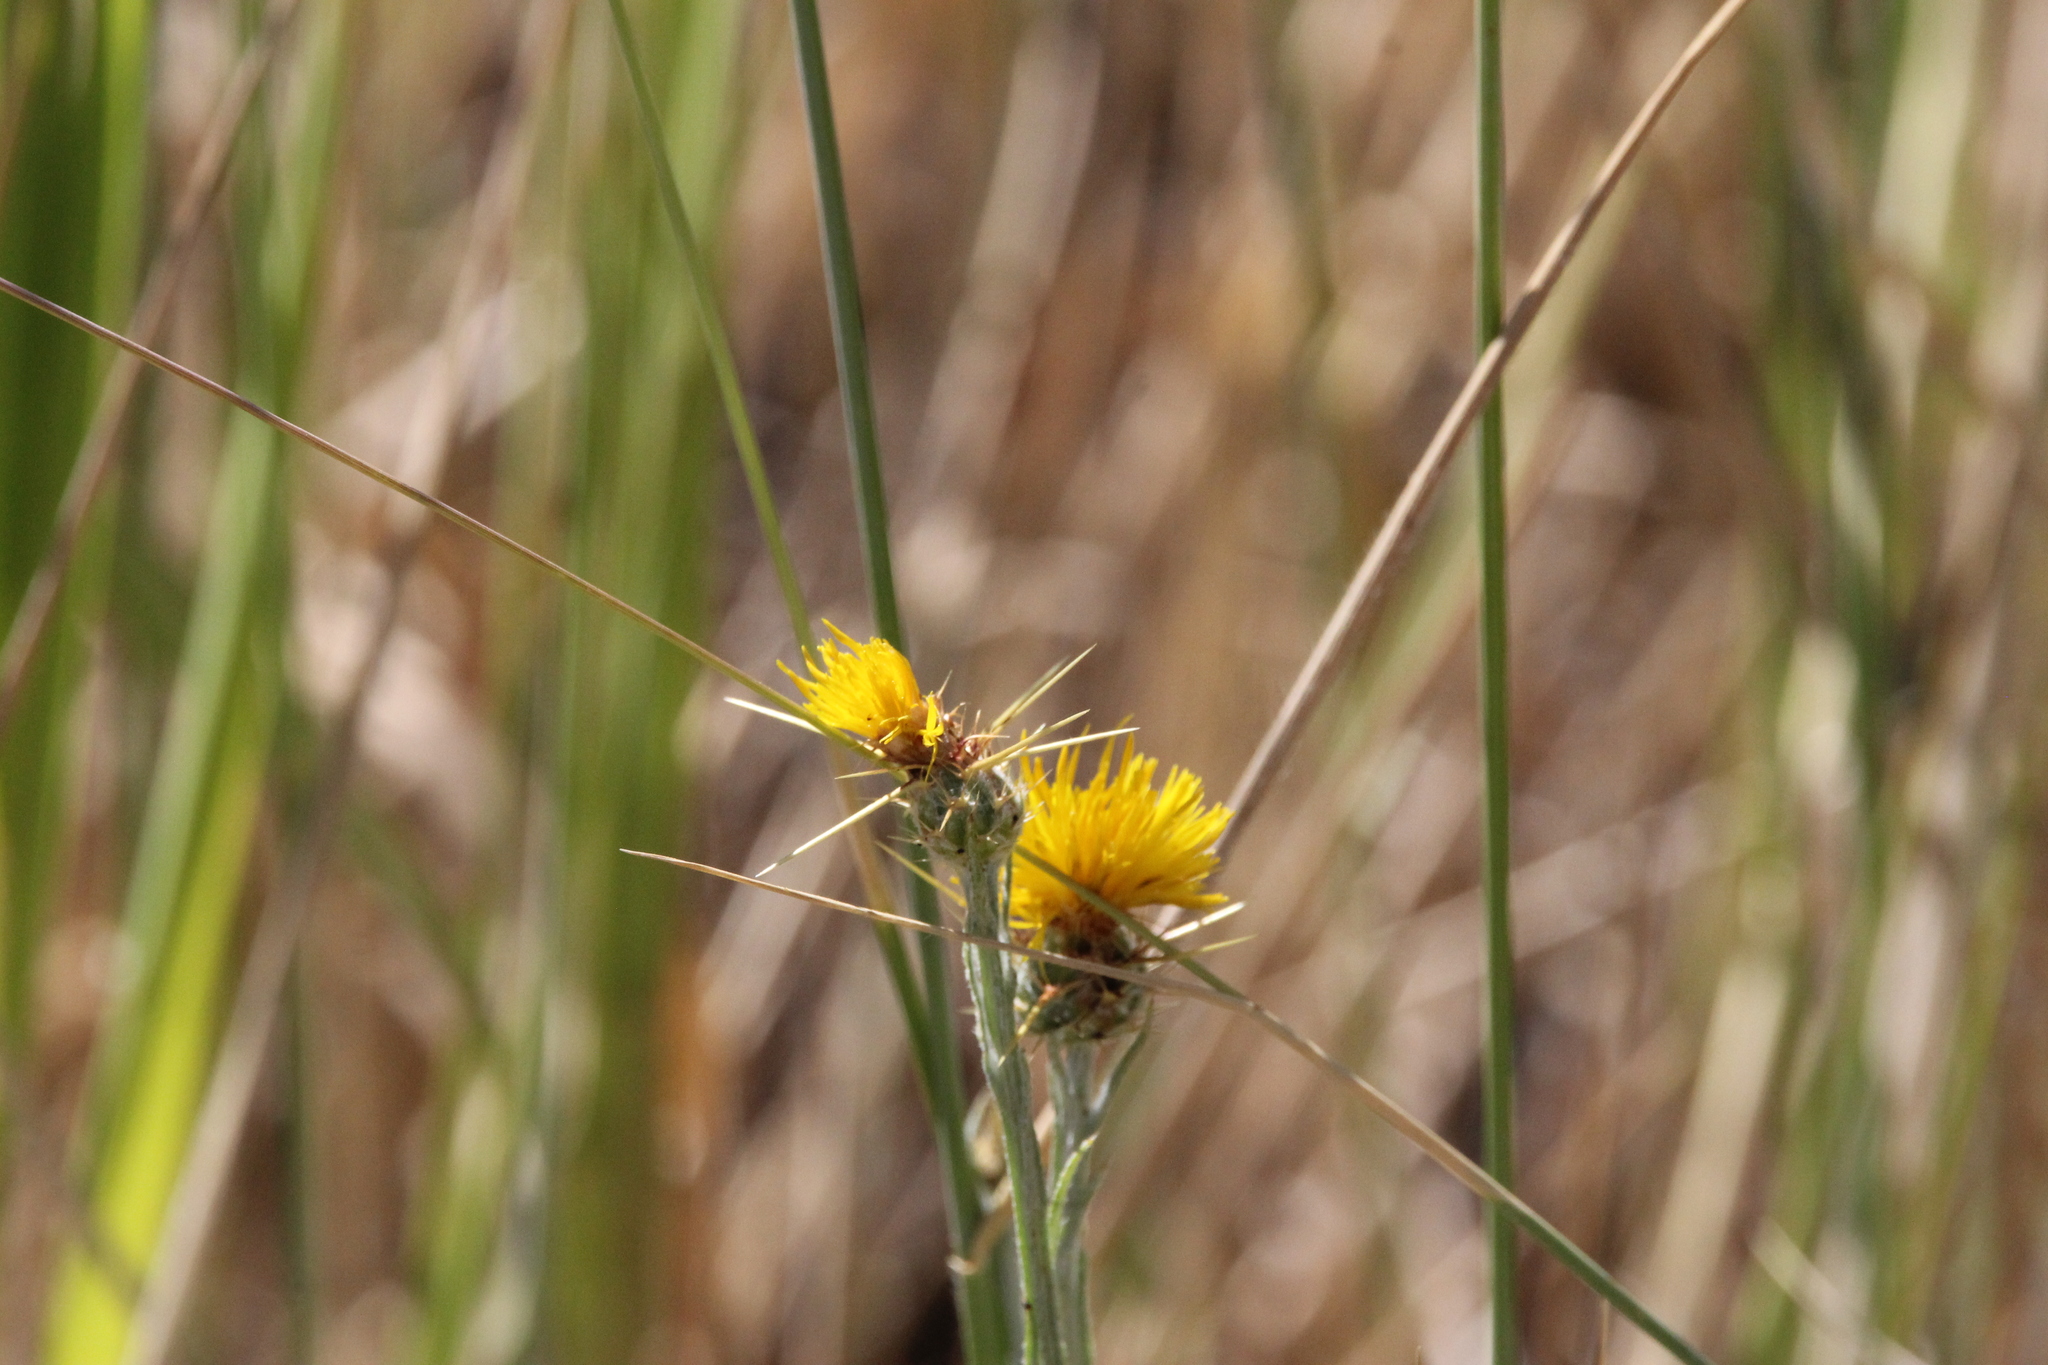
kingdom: Plantae
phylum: Tracheophyta
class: Magnoliopsida
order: Asterales
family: Asteraceae
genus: Centaurea
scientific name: Centaurea solstitialis
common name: Yellow star-thistle
